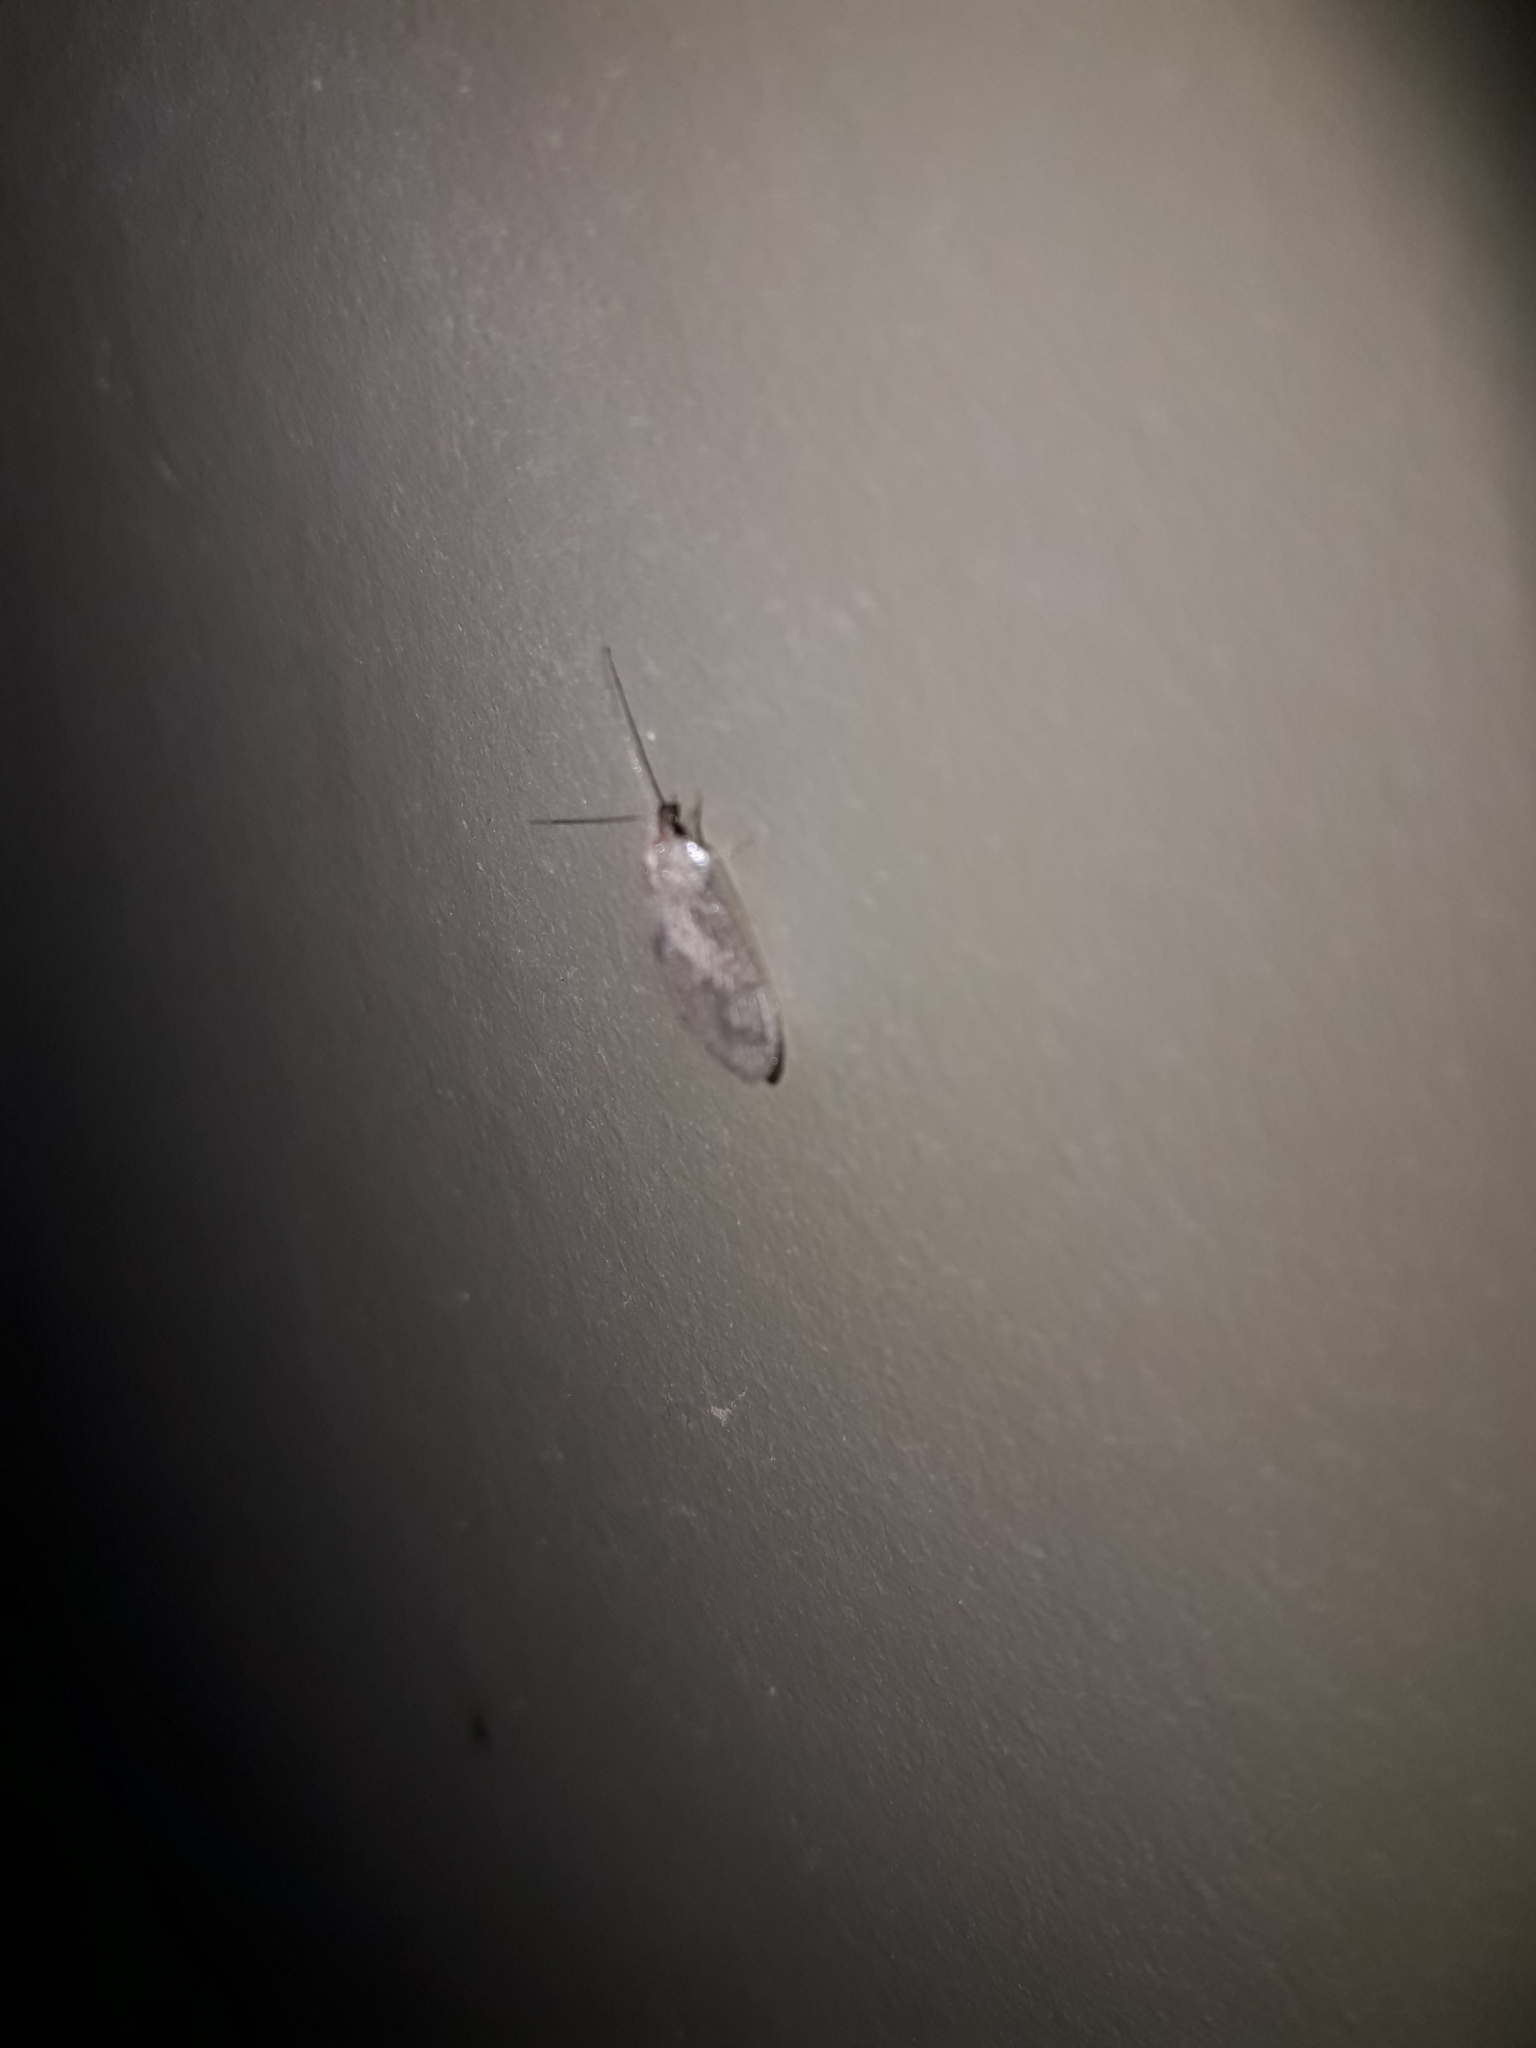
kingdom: Animalia
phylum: Arthropoda
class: Insecta
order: Neuroptera
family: Hemerobiidae
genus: Hemerobius
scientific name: Hemerobius bolivari
